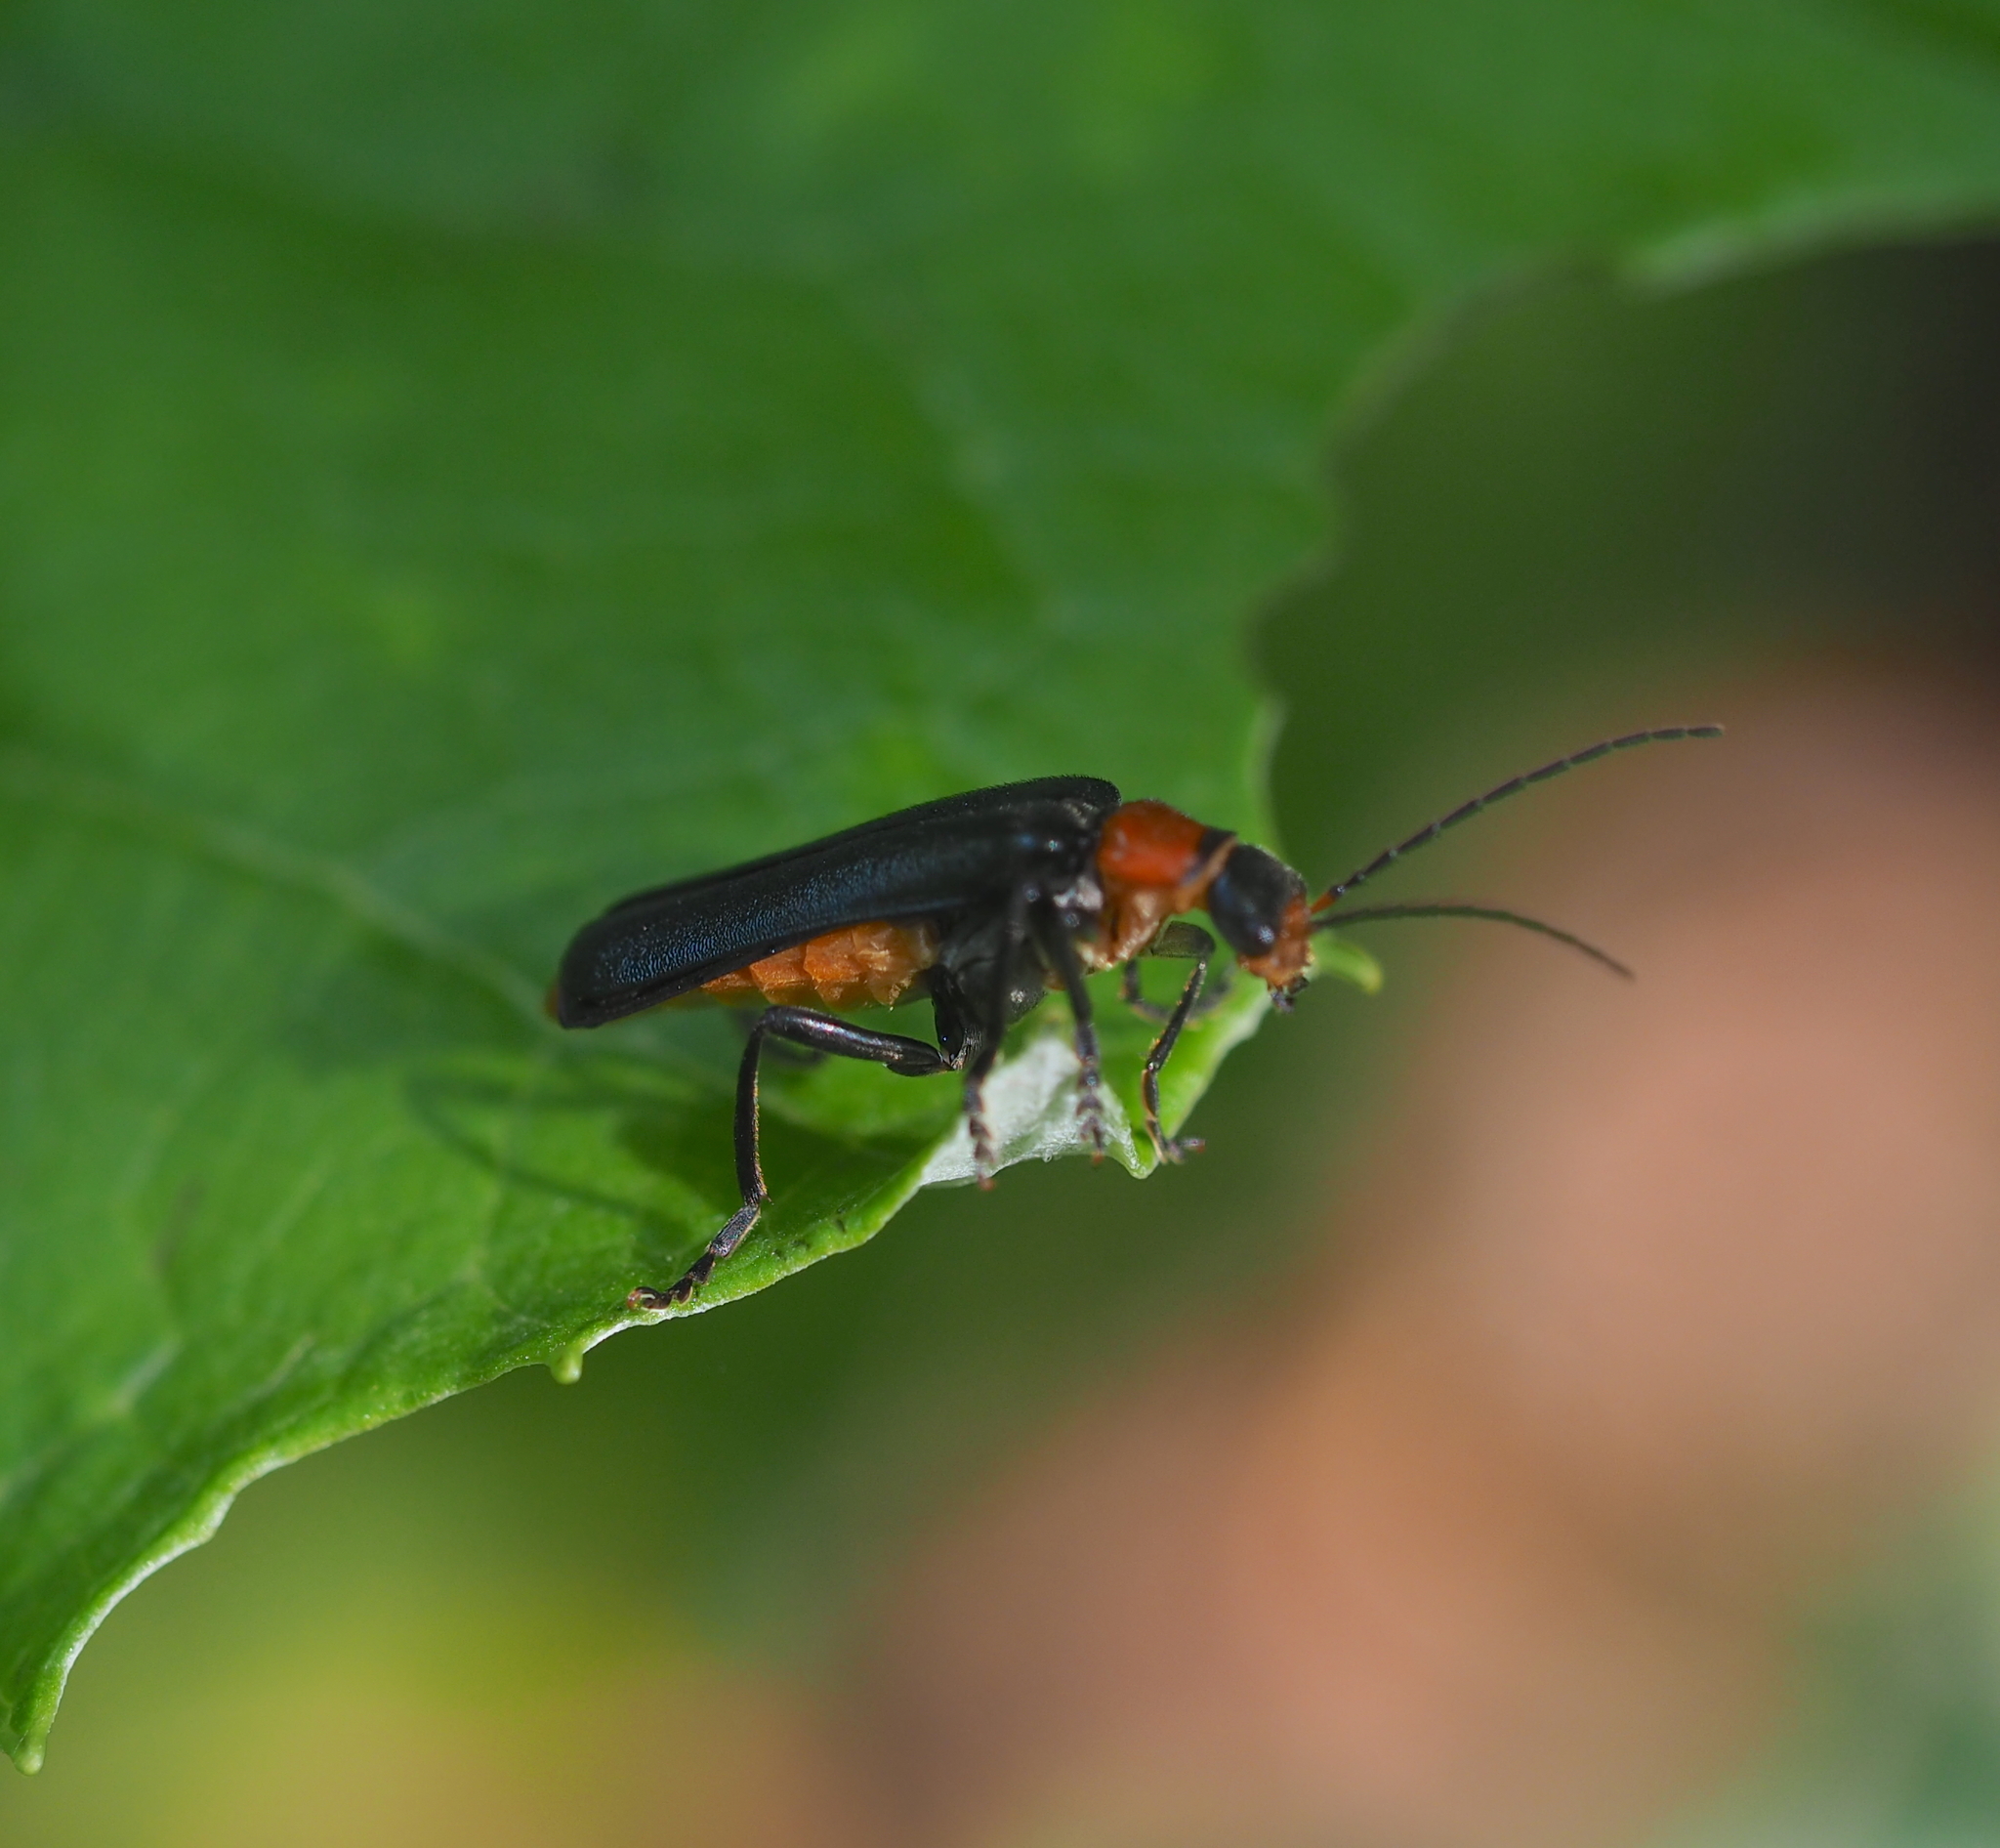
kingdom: Animalia
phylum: Arthropoda
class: Insecta
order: Coleoptera
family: Cantharidae
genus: Ancistronycha
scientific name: Ancistronycha abdominalis
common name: Blue soldier beetle
